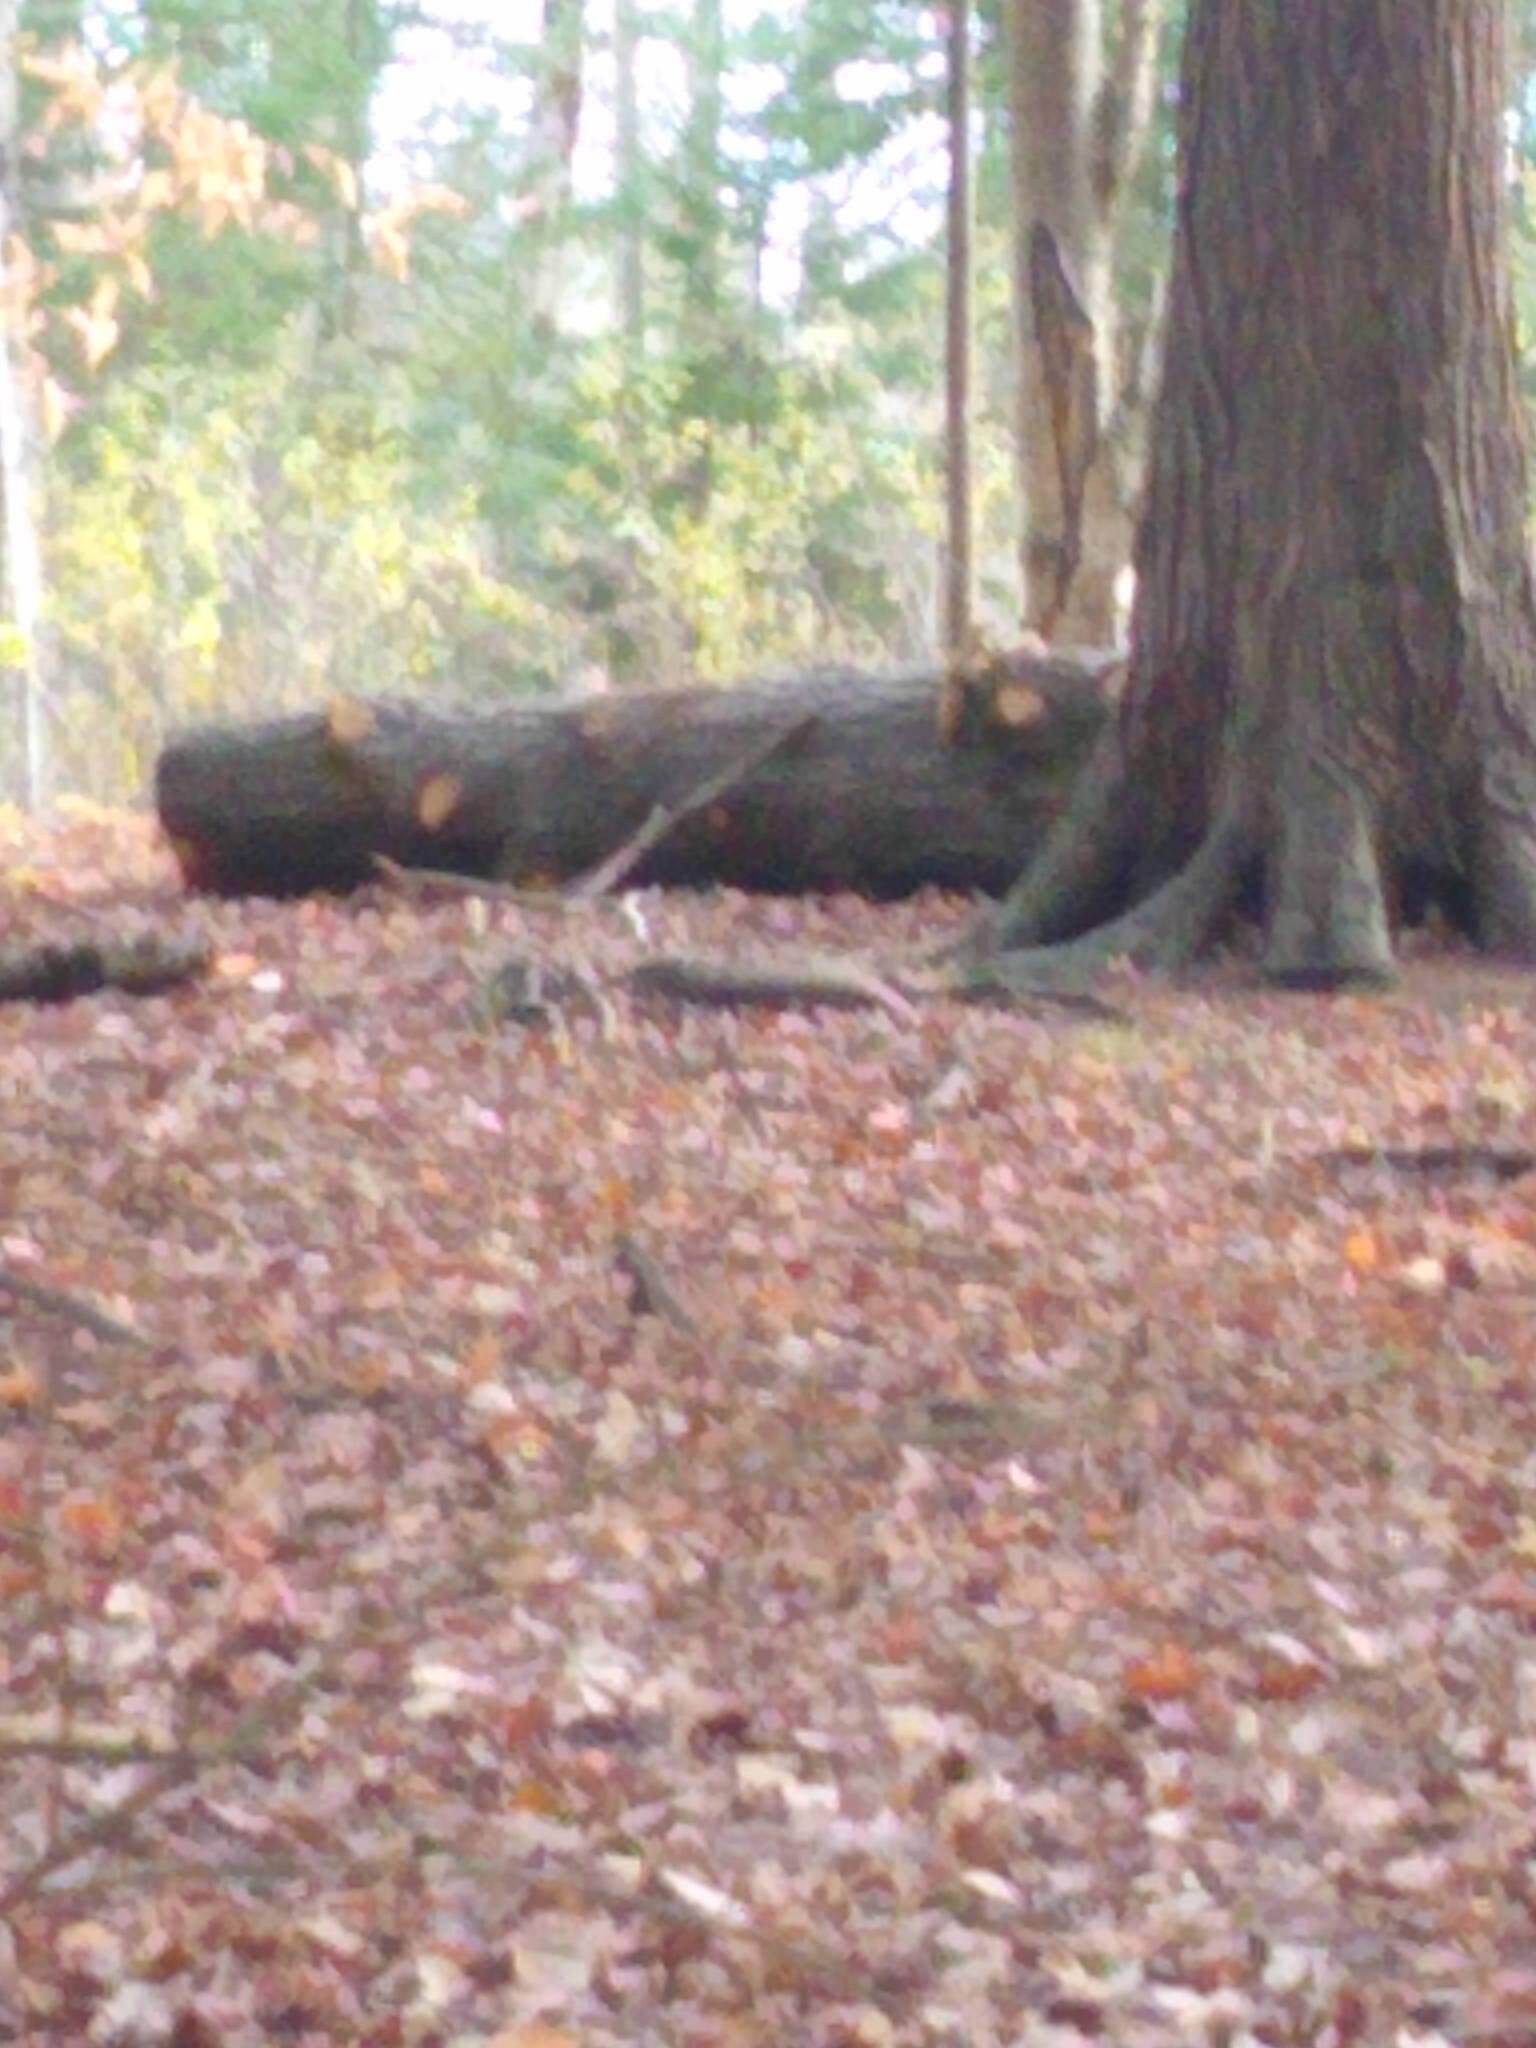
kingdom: Animalia
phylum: Chordata
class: Mammalia
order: Rodentia
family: Sciuridae
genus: Tamiasciurus
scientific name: Tamiasciurus hudsonicus
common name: Red squirrel
